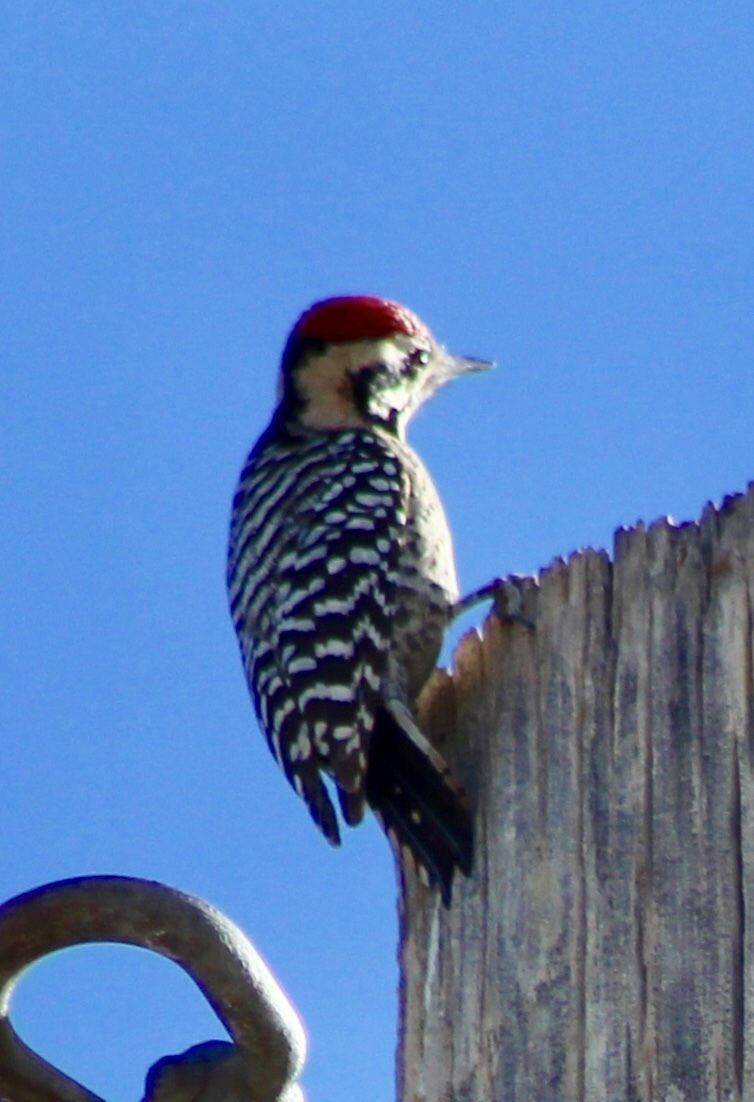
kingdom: Animalia
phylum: Chordata
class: Aves
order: Piciformes
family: Picidae
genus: Dryobates
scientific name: Dryobates scalaris
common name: Ladder-backed woodpecker
